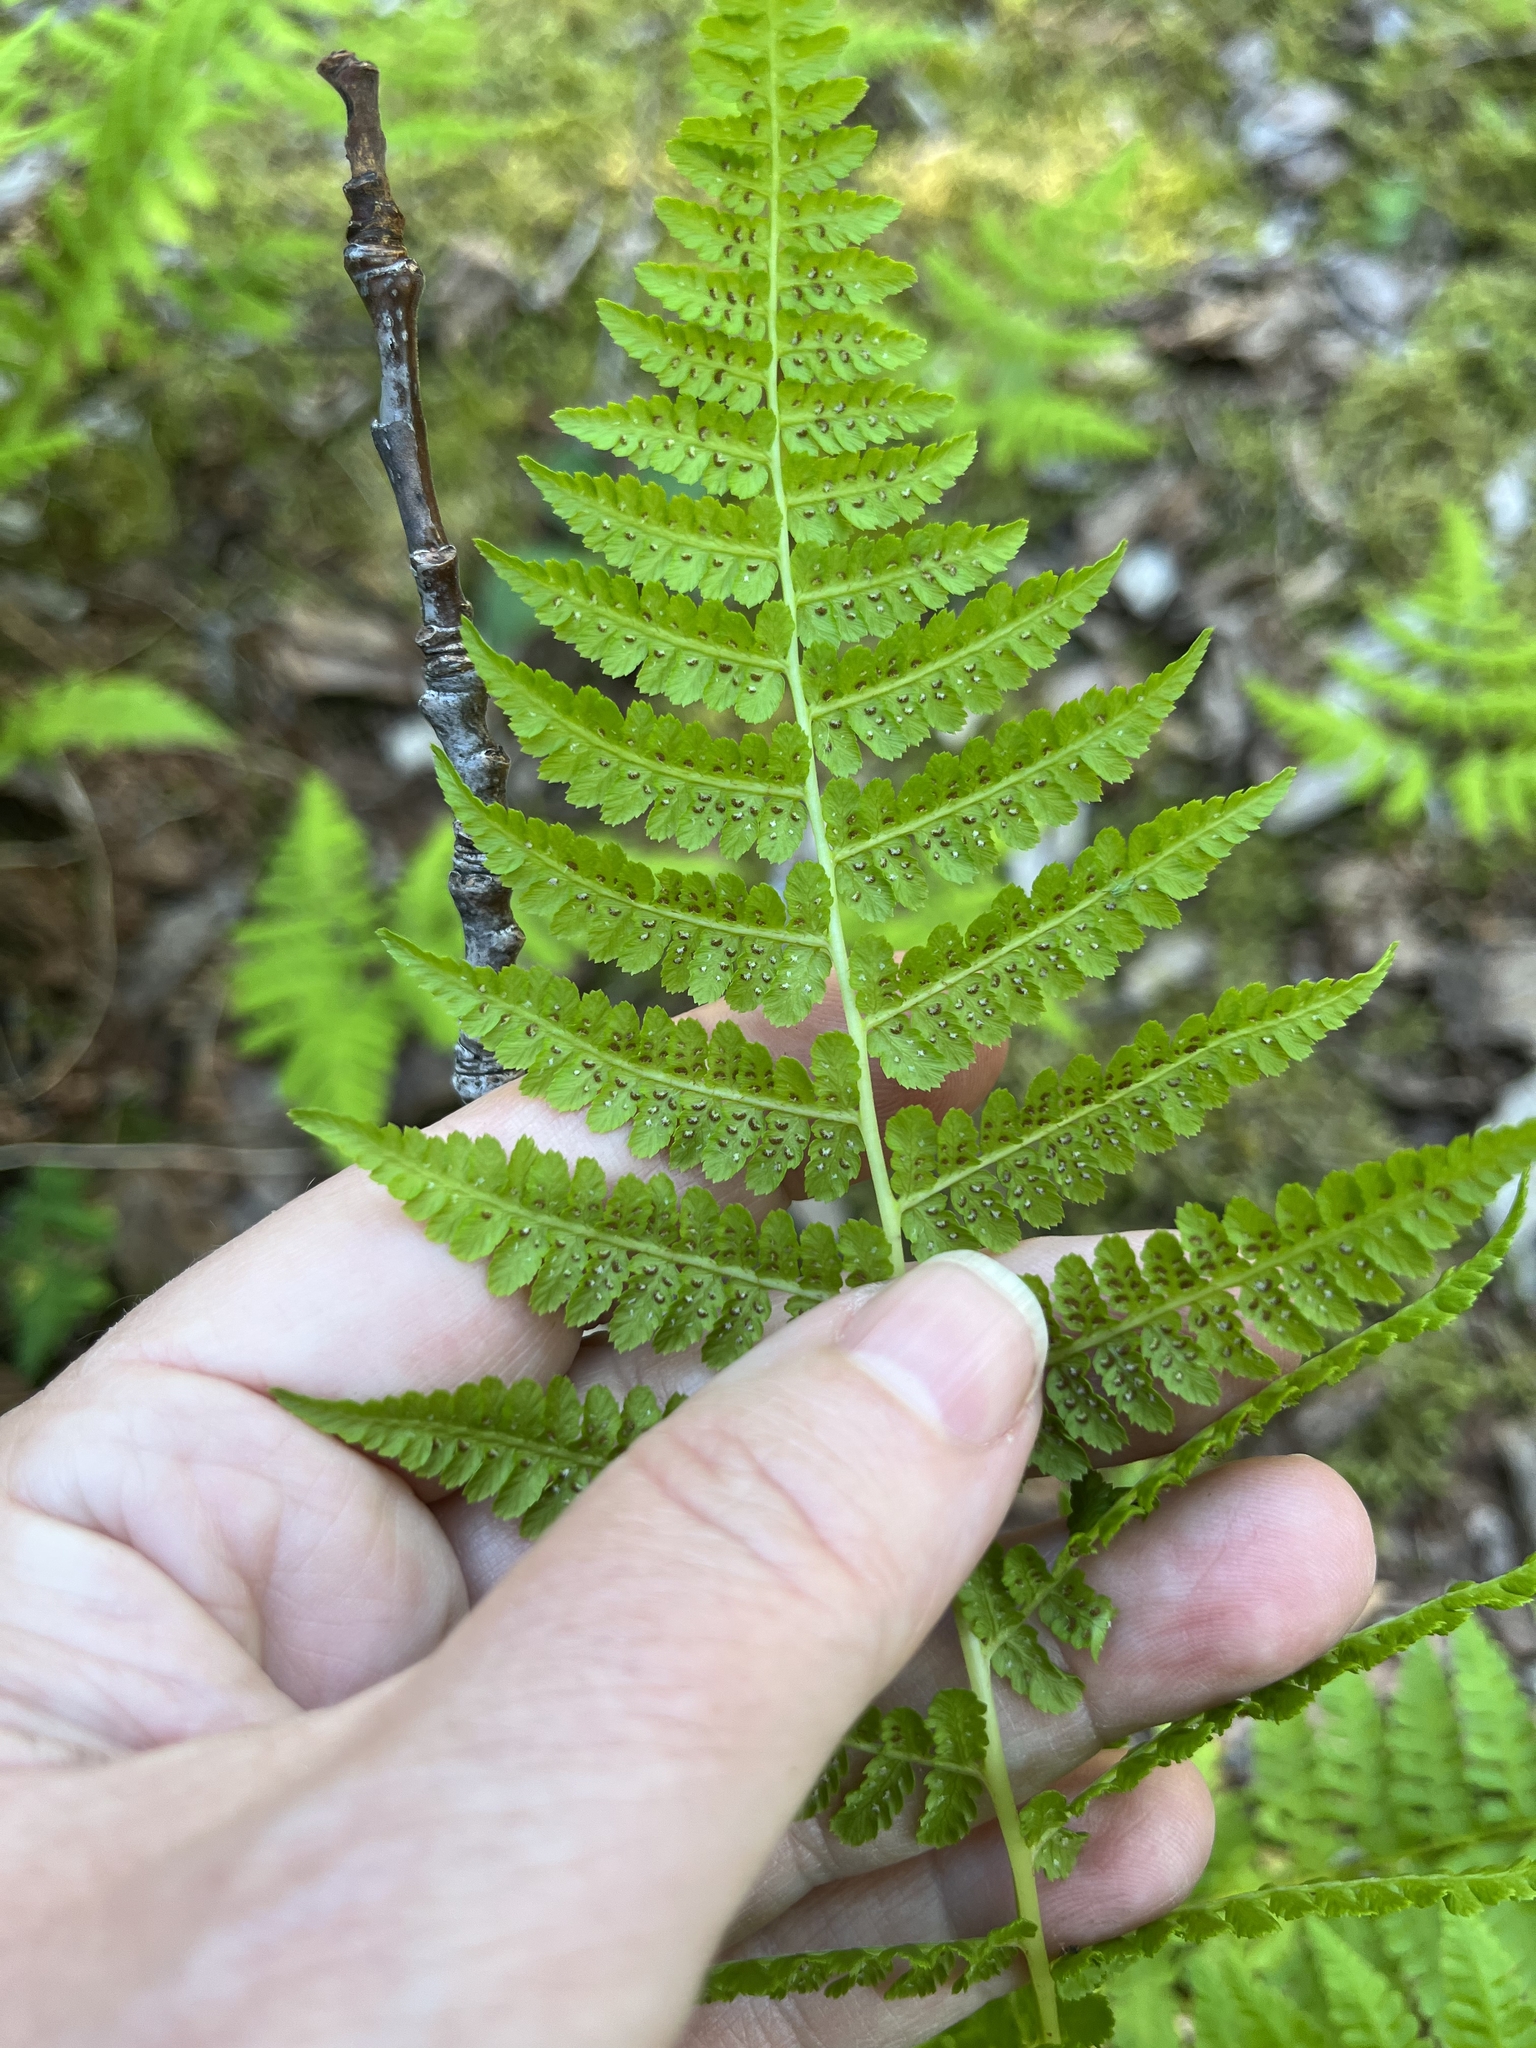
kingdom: Plantae
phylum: Tracheophyta
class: Polypodiopsida
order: Polypodiales
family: Athyriaceae
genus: Athyrium
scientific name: Athyrium cyclosorum
